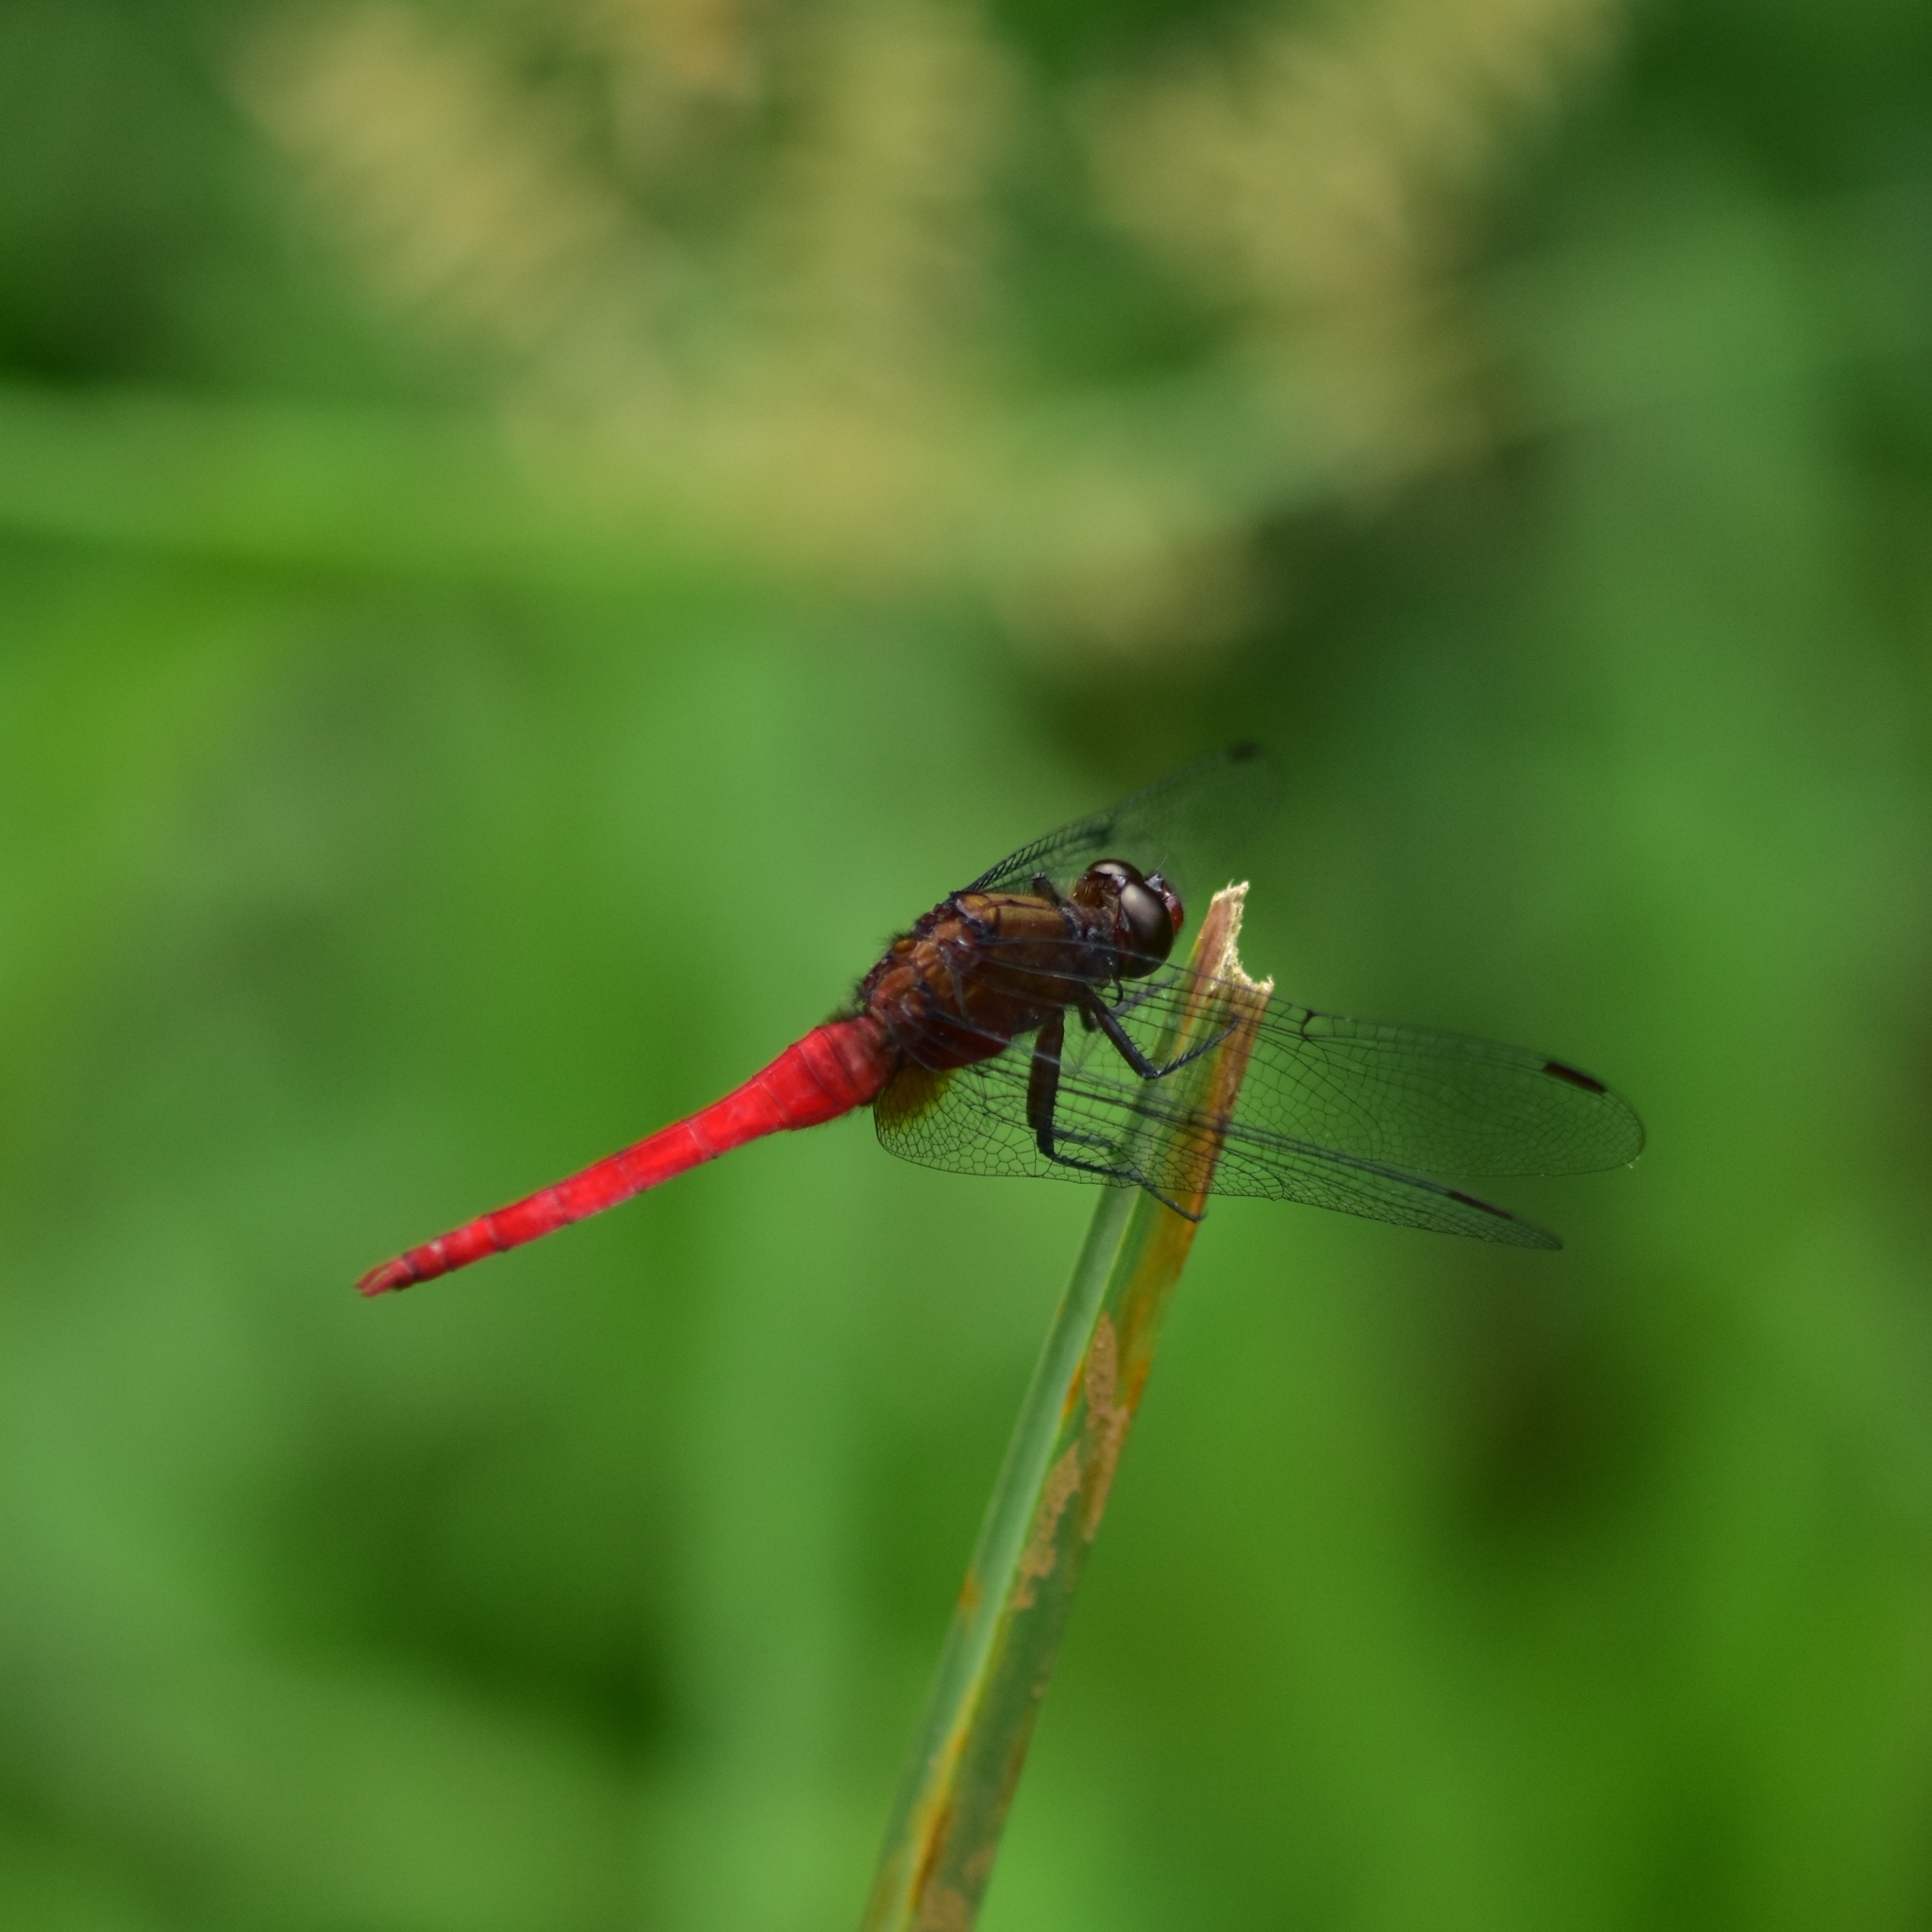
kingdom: Animalia
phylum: Arthropoda
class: Insecta
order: Odonata
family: Libellulidae
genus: Orthetrum
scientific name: Orthetrum chrysis
